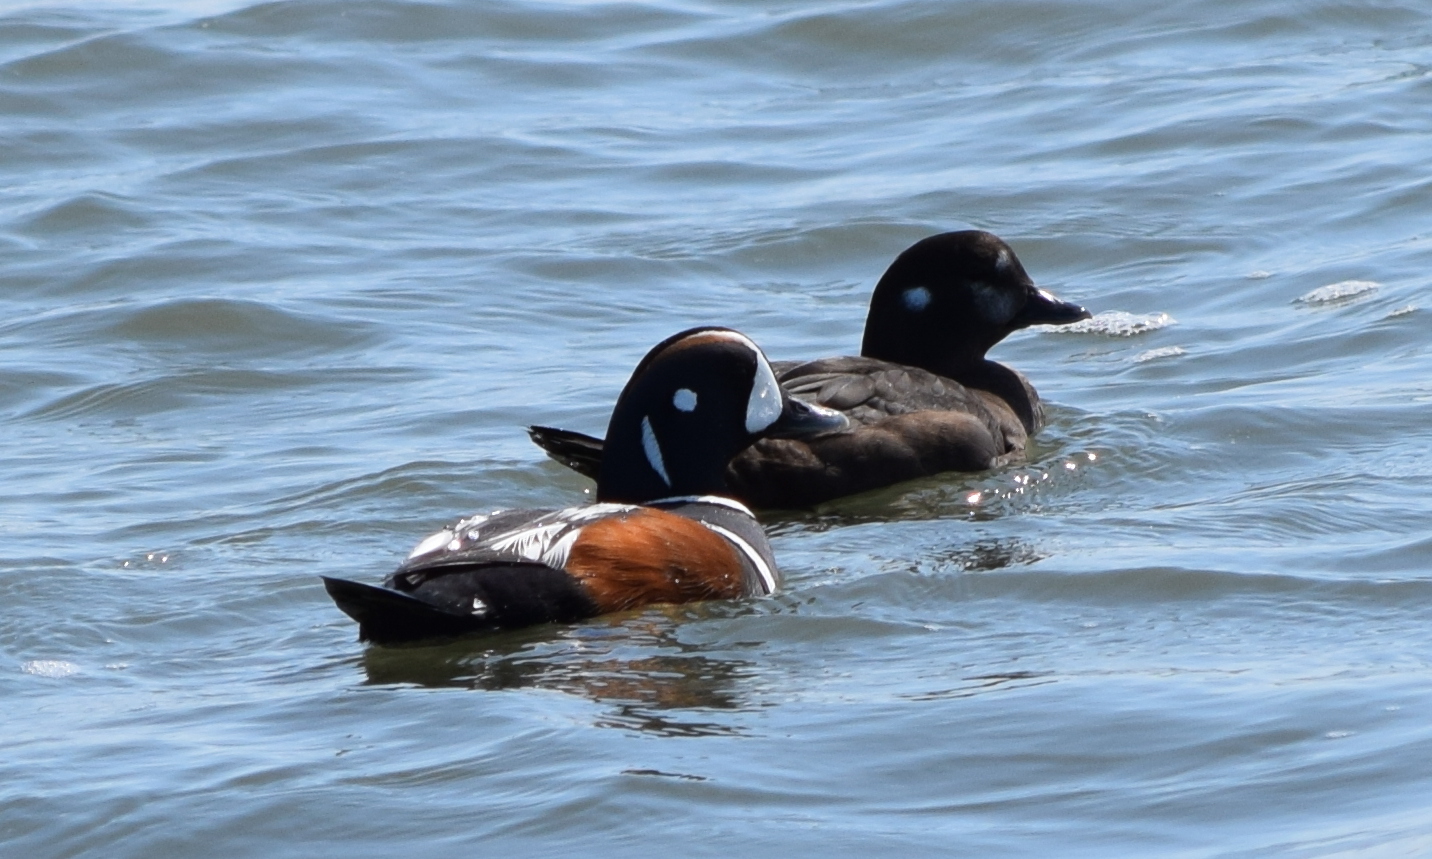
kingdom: Animalia
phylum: Chordata
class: Aves
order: Anseriformes
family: Anatidae
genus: Histrionicus
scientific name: Histrionicus histrionicus
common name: Harlequin duck
